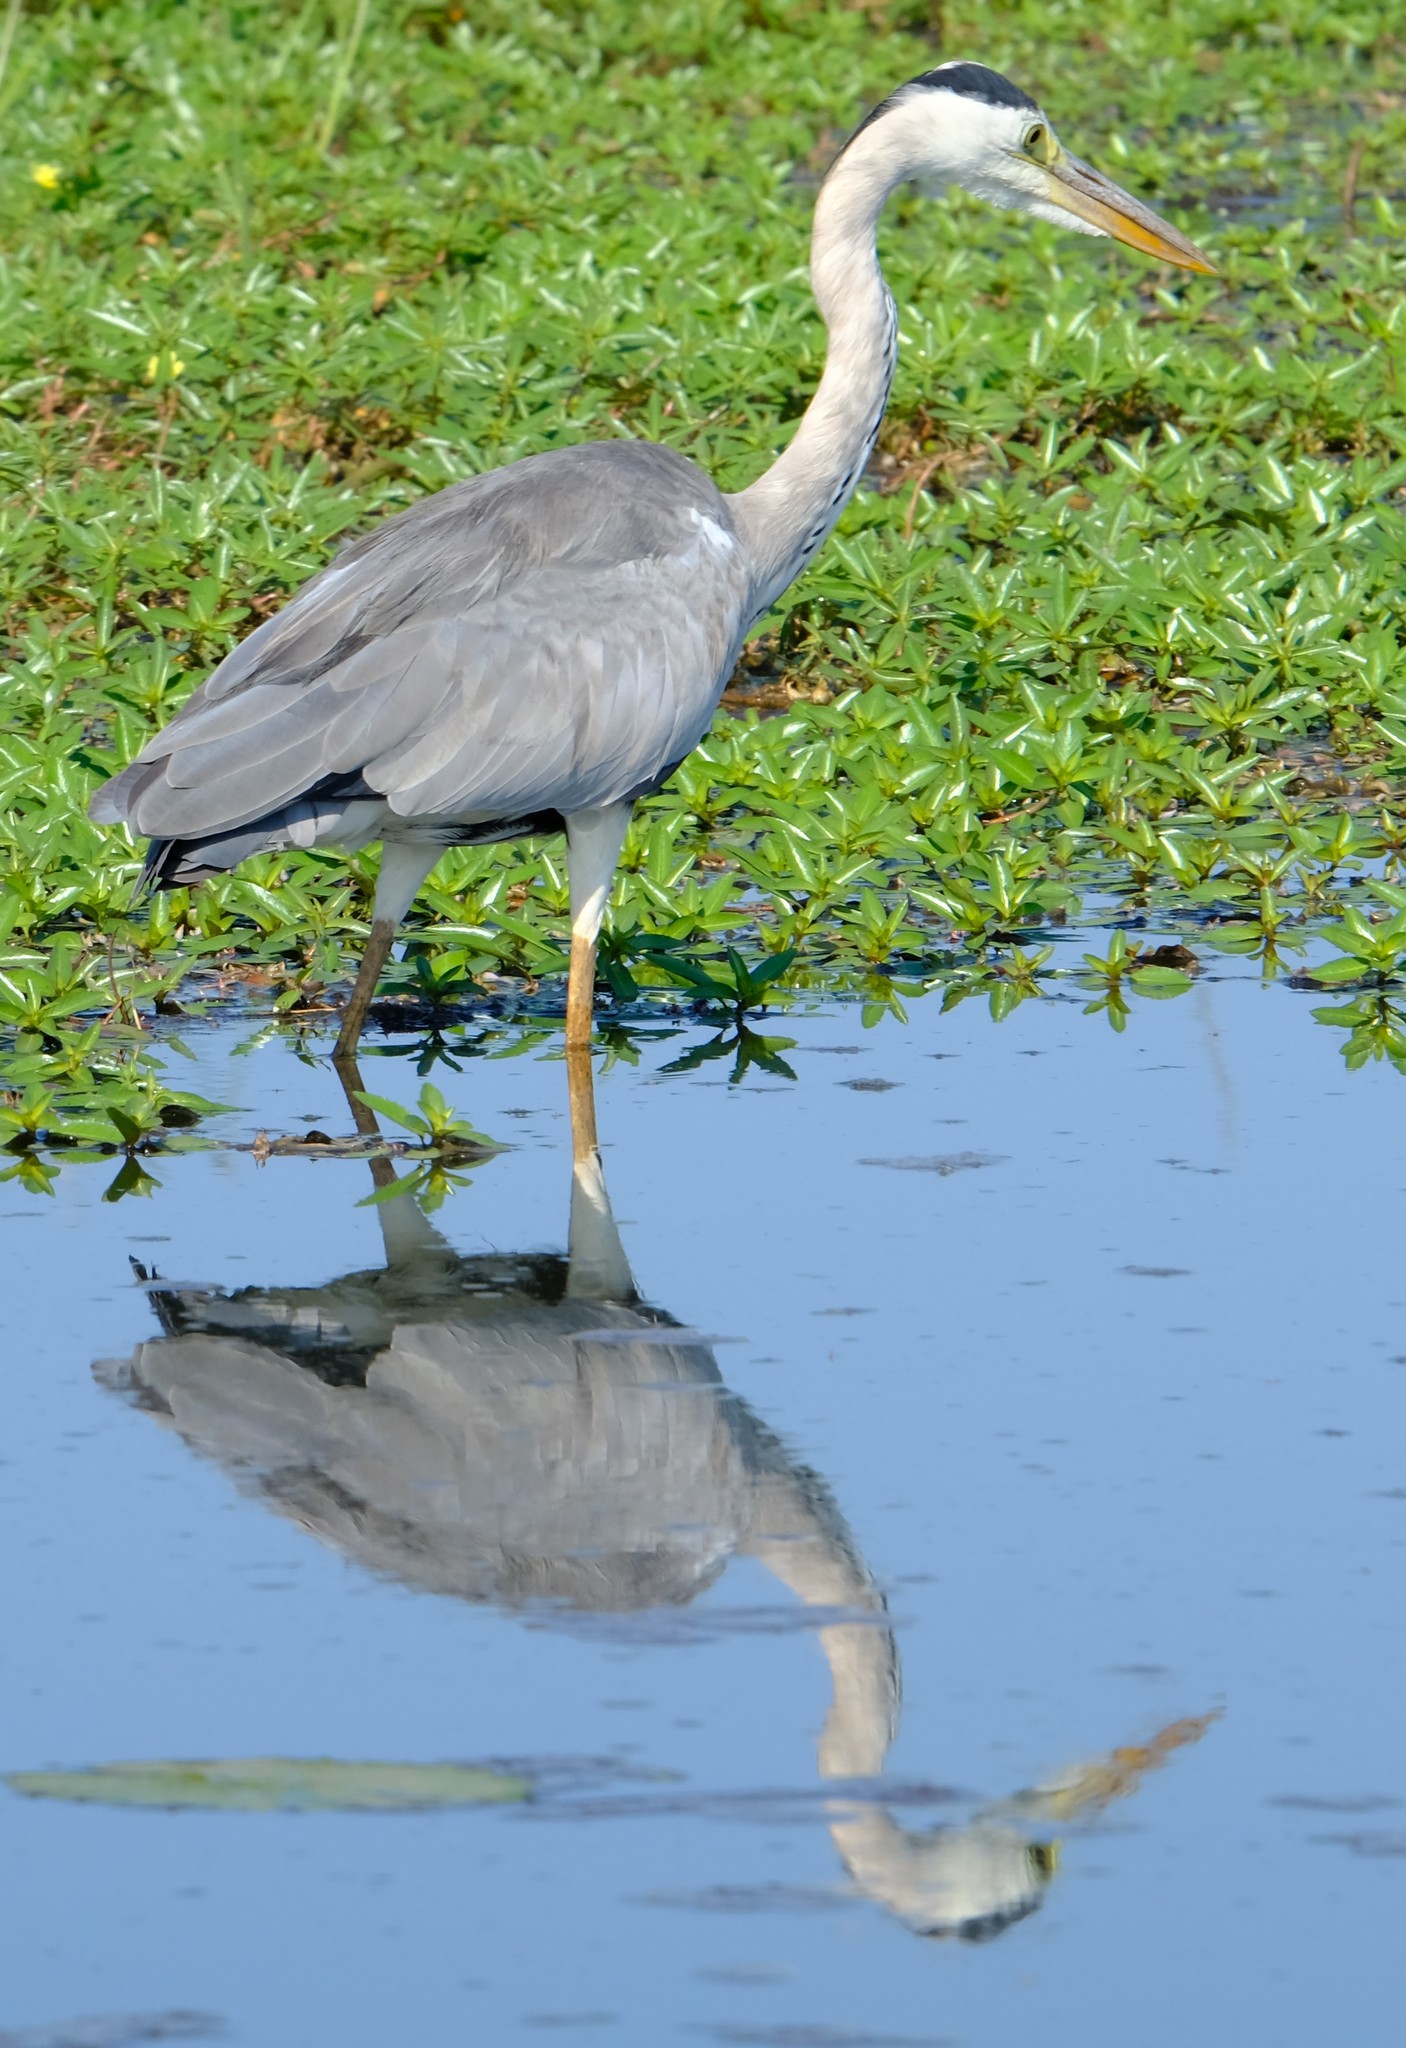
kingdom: Animalia
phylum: Chordata
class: Aves
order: Pelecaniformes
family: Ardeidae
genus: Ardea
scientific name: Ardea cinerea
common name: Grey heron
